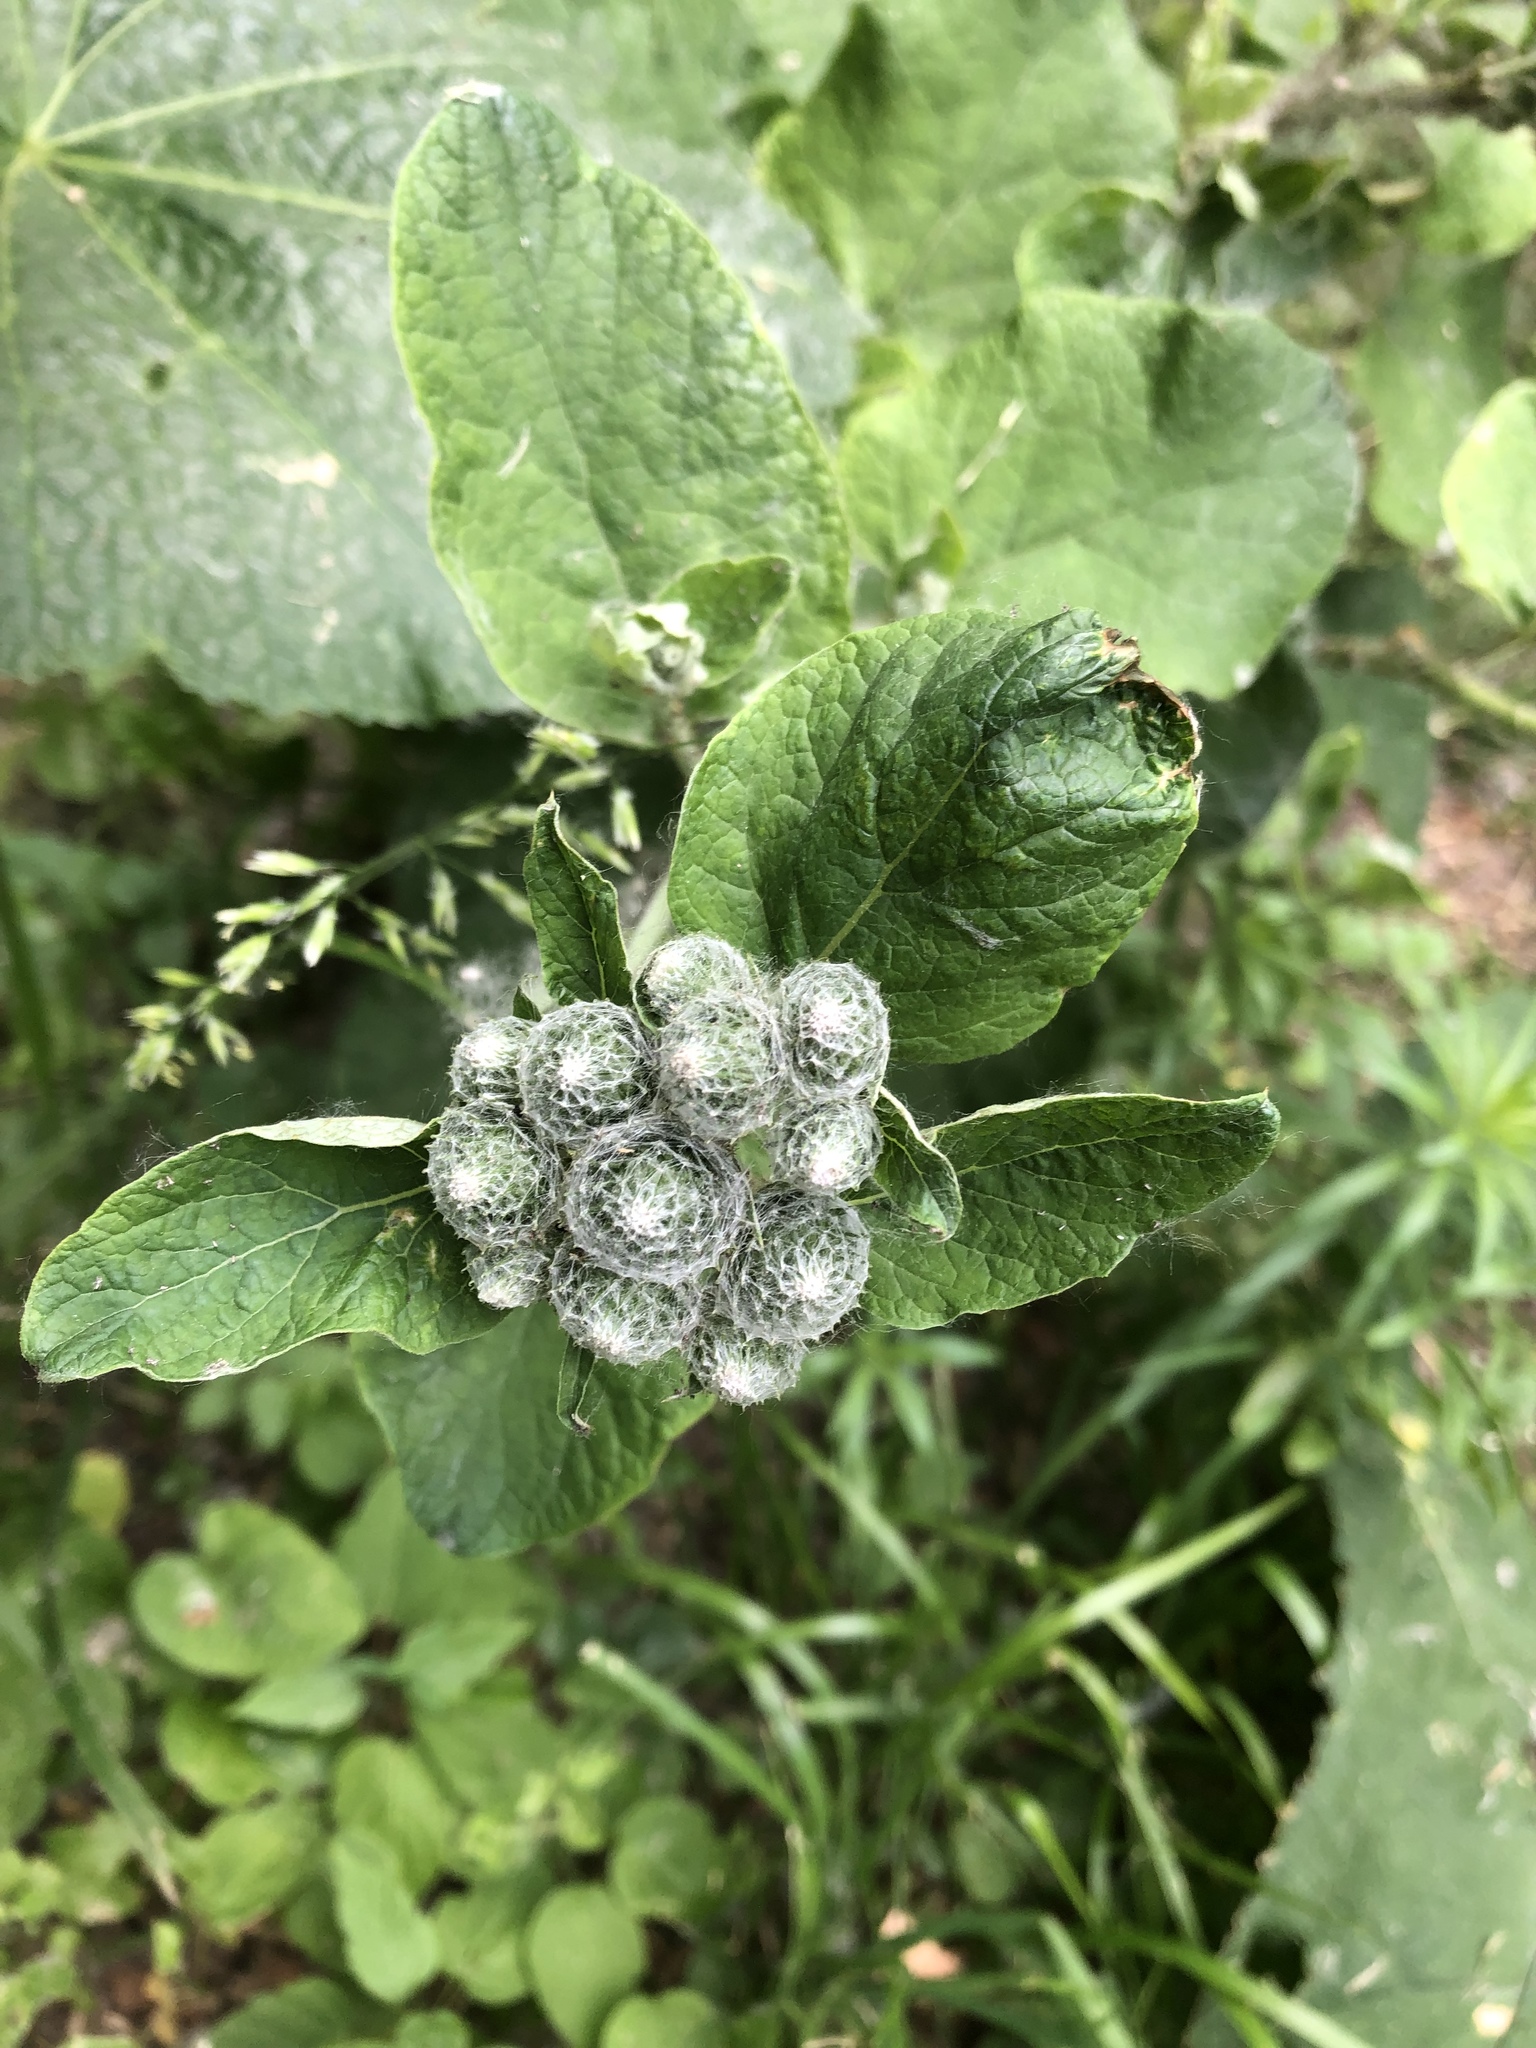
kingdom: Plantae
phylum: Tracheophyta
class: Magnoliopsida
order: Asterales
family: Asteraceae
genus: Arctium
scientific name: Arctium tomentosum
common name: Woolly burdock
